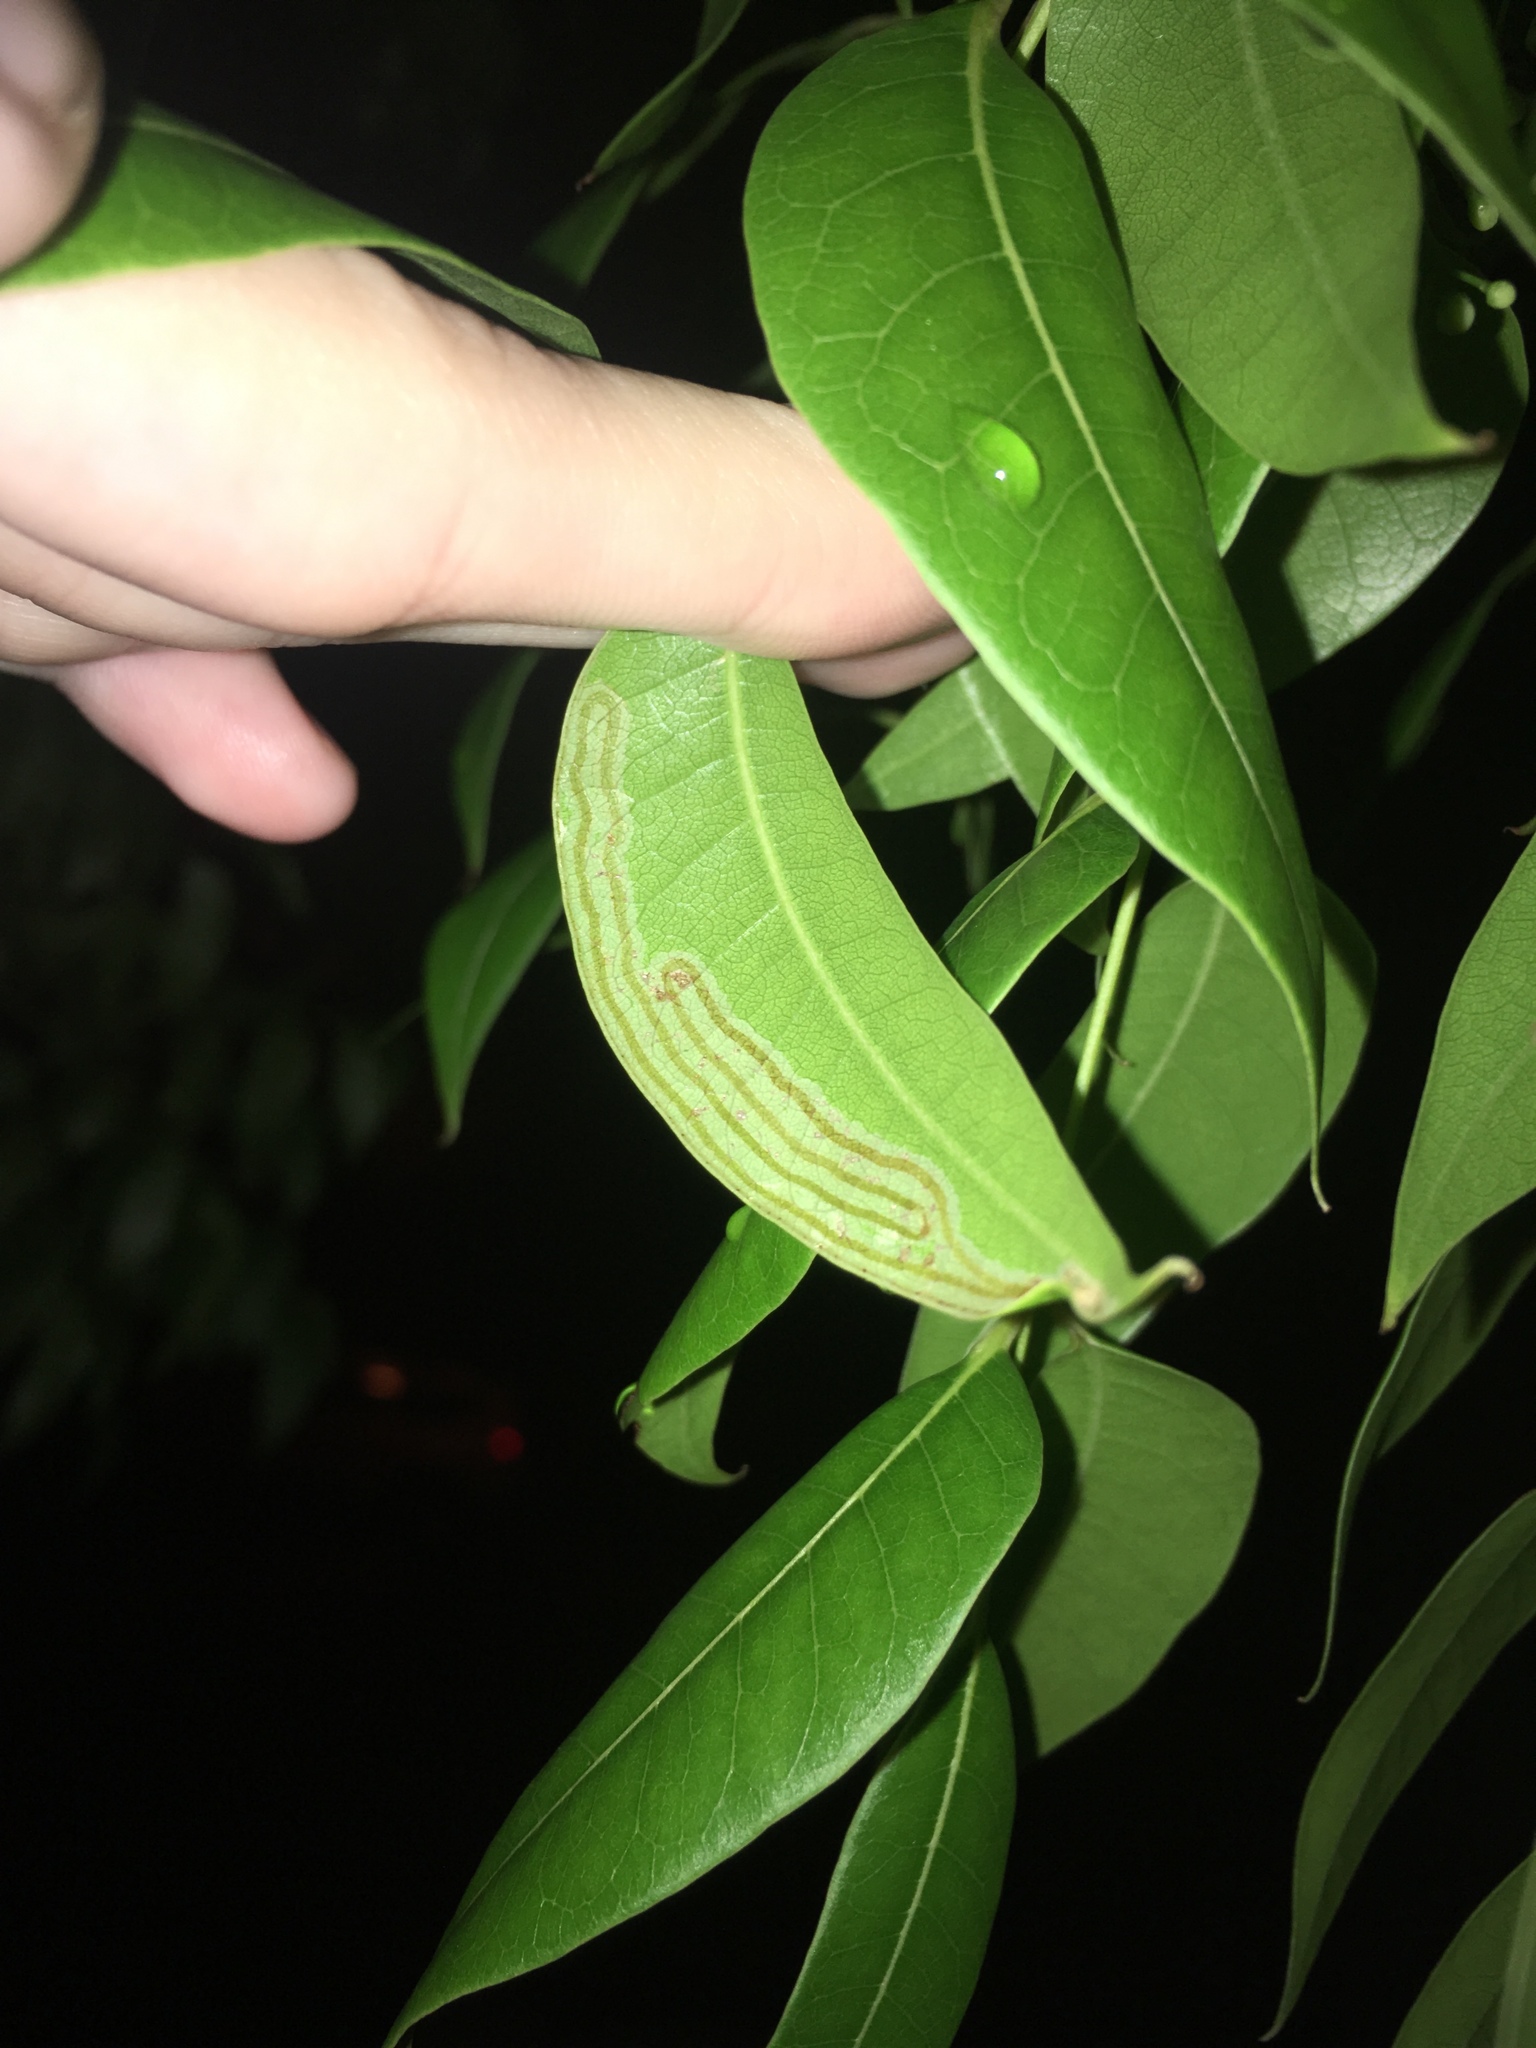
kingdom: Animalia
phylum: Arthropoda
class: Insecta
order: Lepidoptera
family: Gracillariidae
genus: Phyllocnistis
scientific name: Phyllocnistis meliacella
